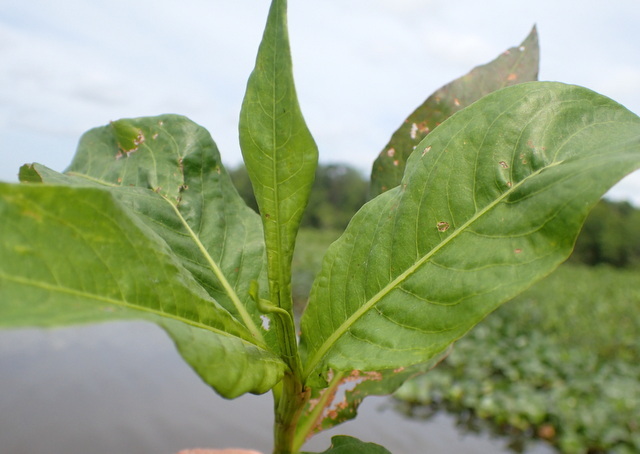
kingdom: Animalia
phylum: Arthropoda
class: Insecta
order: Coleoptera
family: Chrysomelidae
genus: Galerucella
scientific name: Galerucella nymphaeae
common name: Leaf beetle
